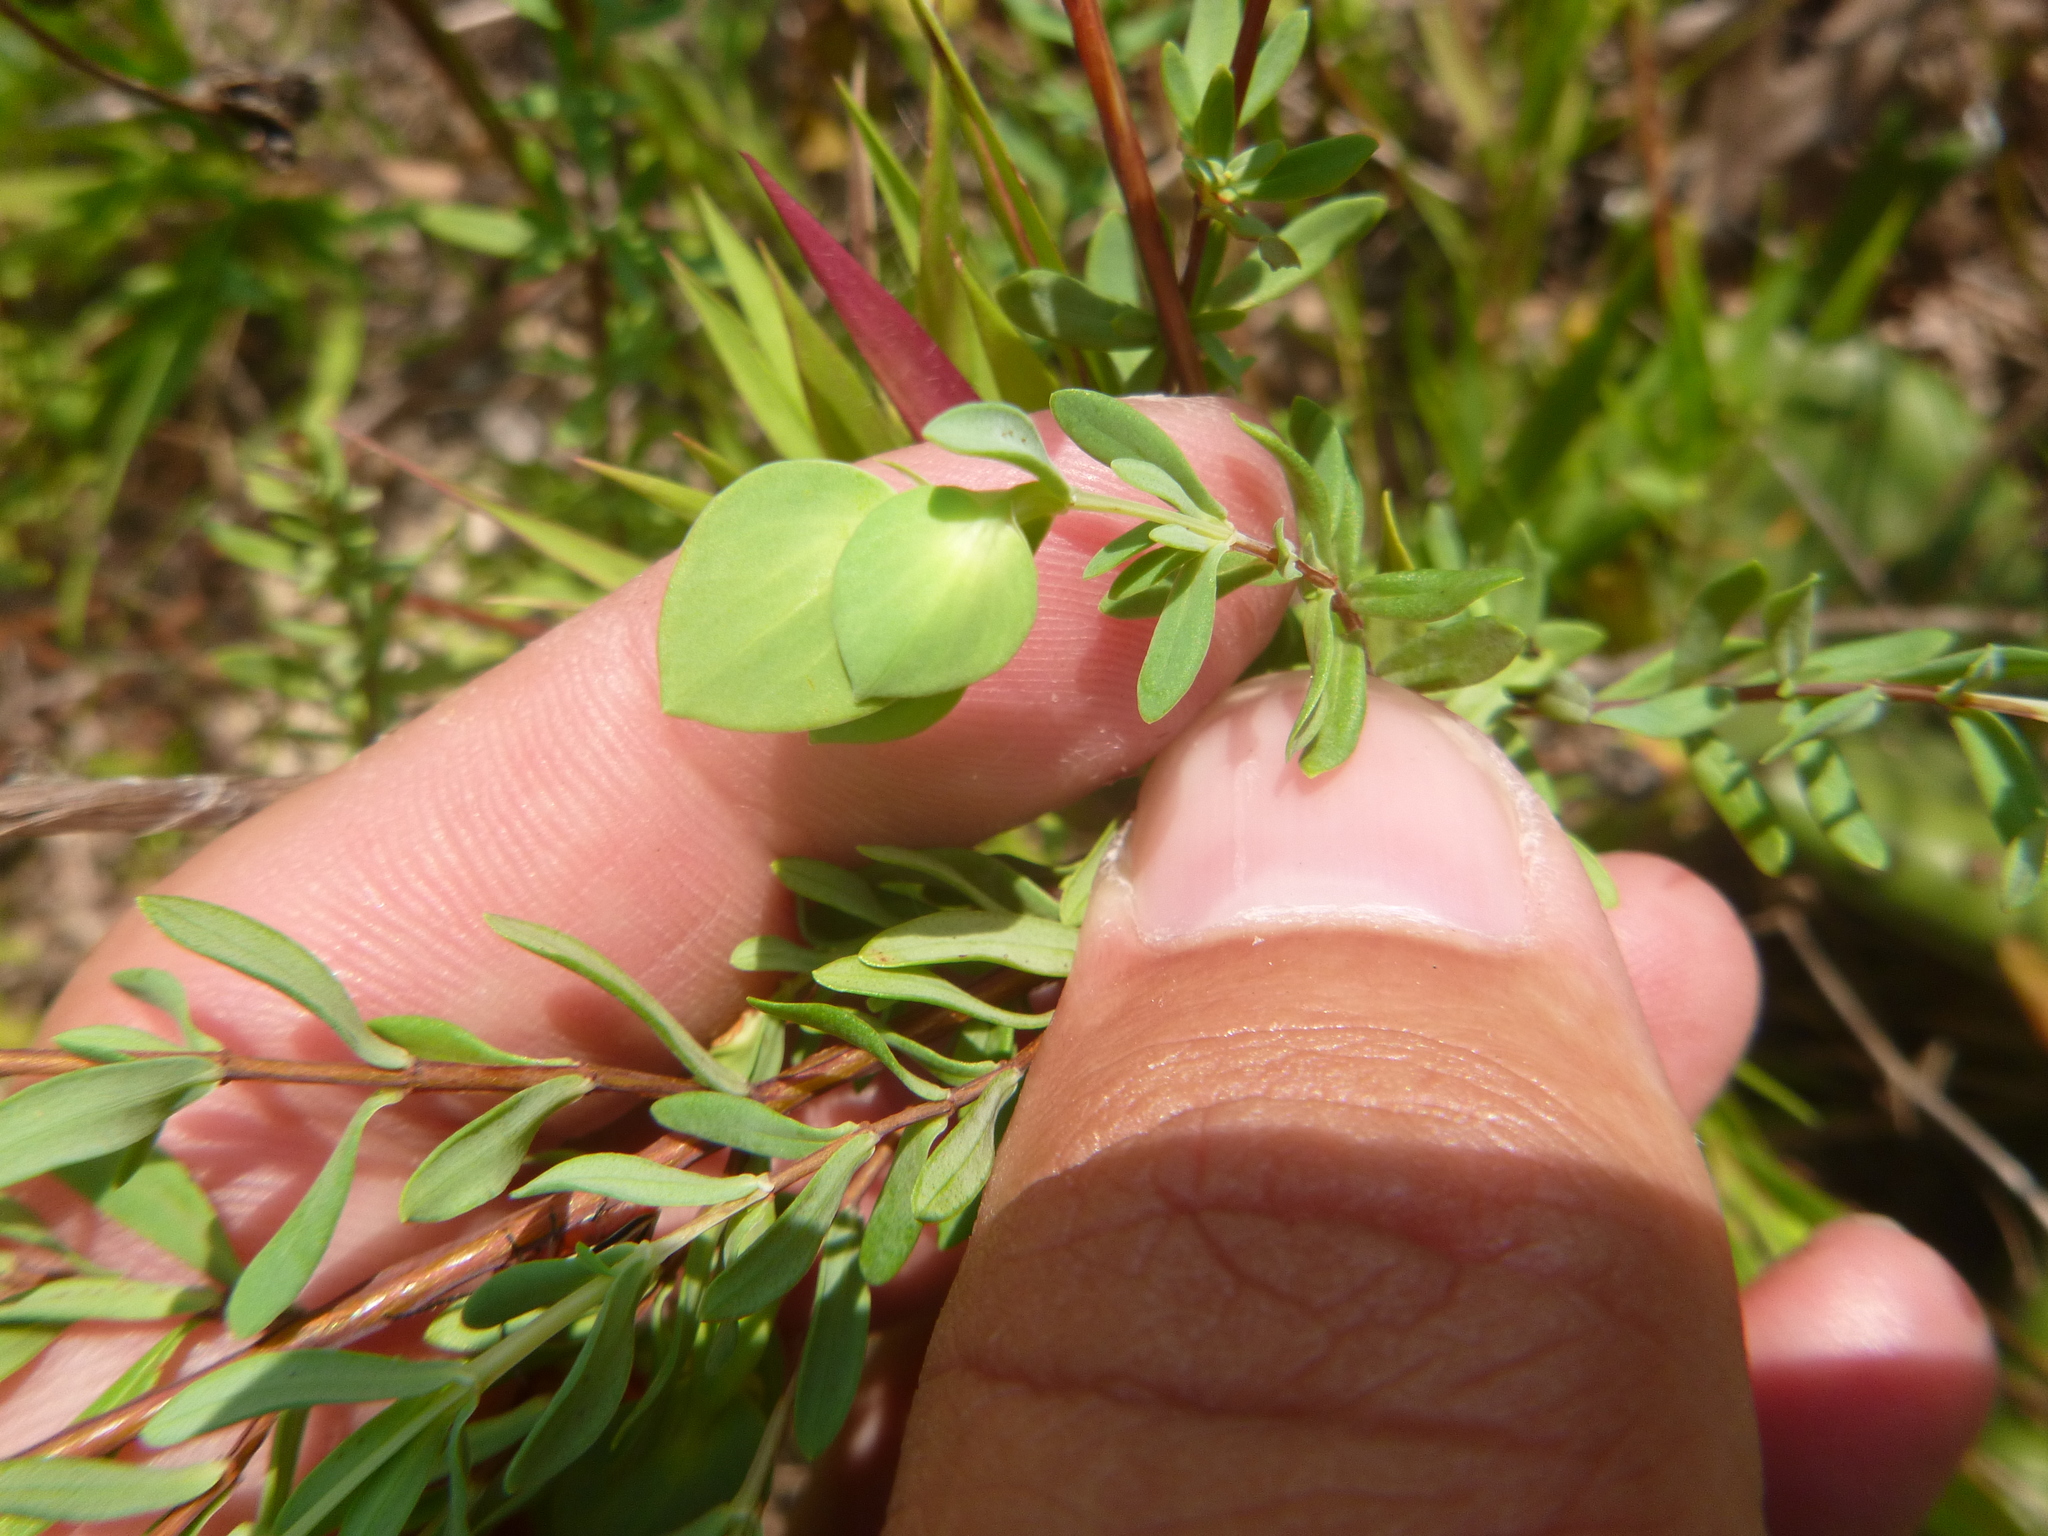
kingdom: Plantae
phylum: Tracheophyta
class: Magnoliopsida
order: Malpighiales
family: Hypericaceae
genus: Hypericum
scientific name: Hypericum hypericoides
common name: St. andrew's cross
